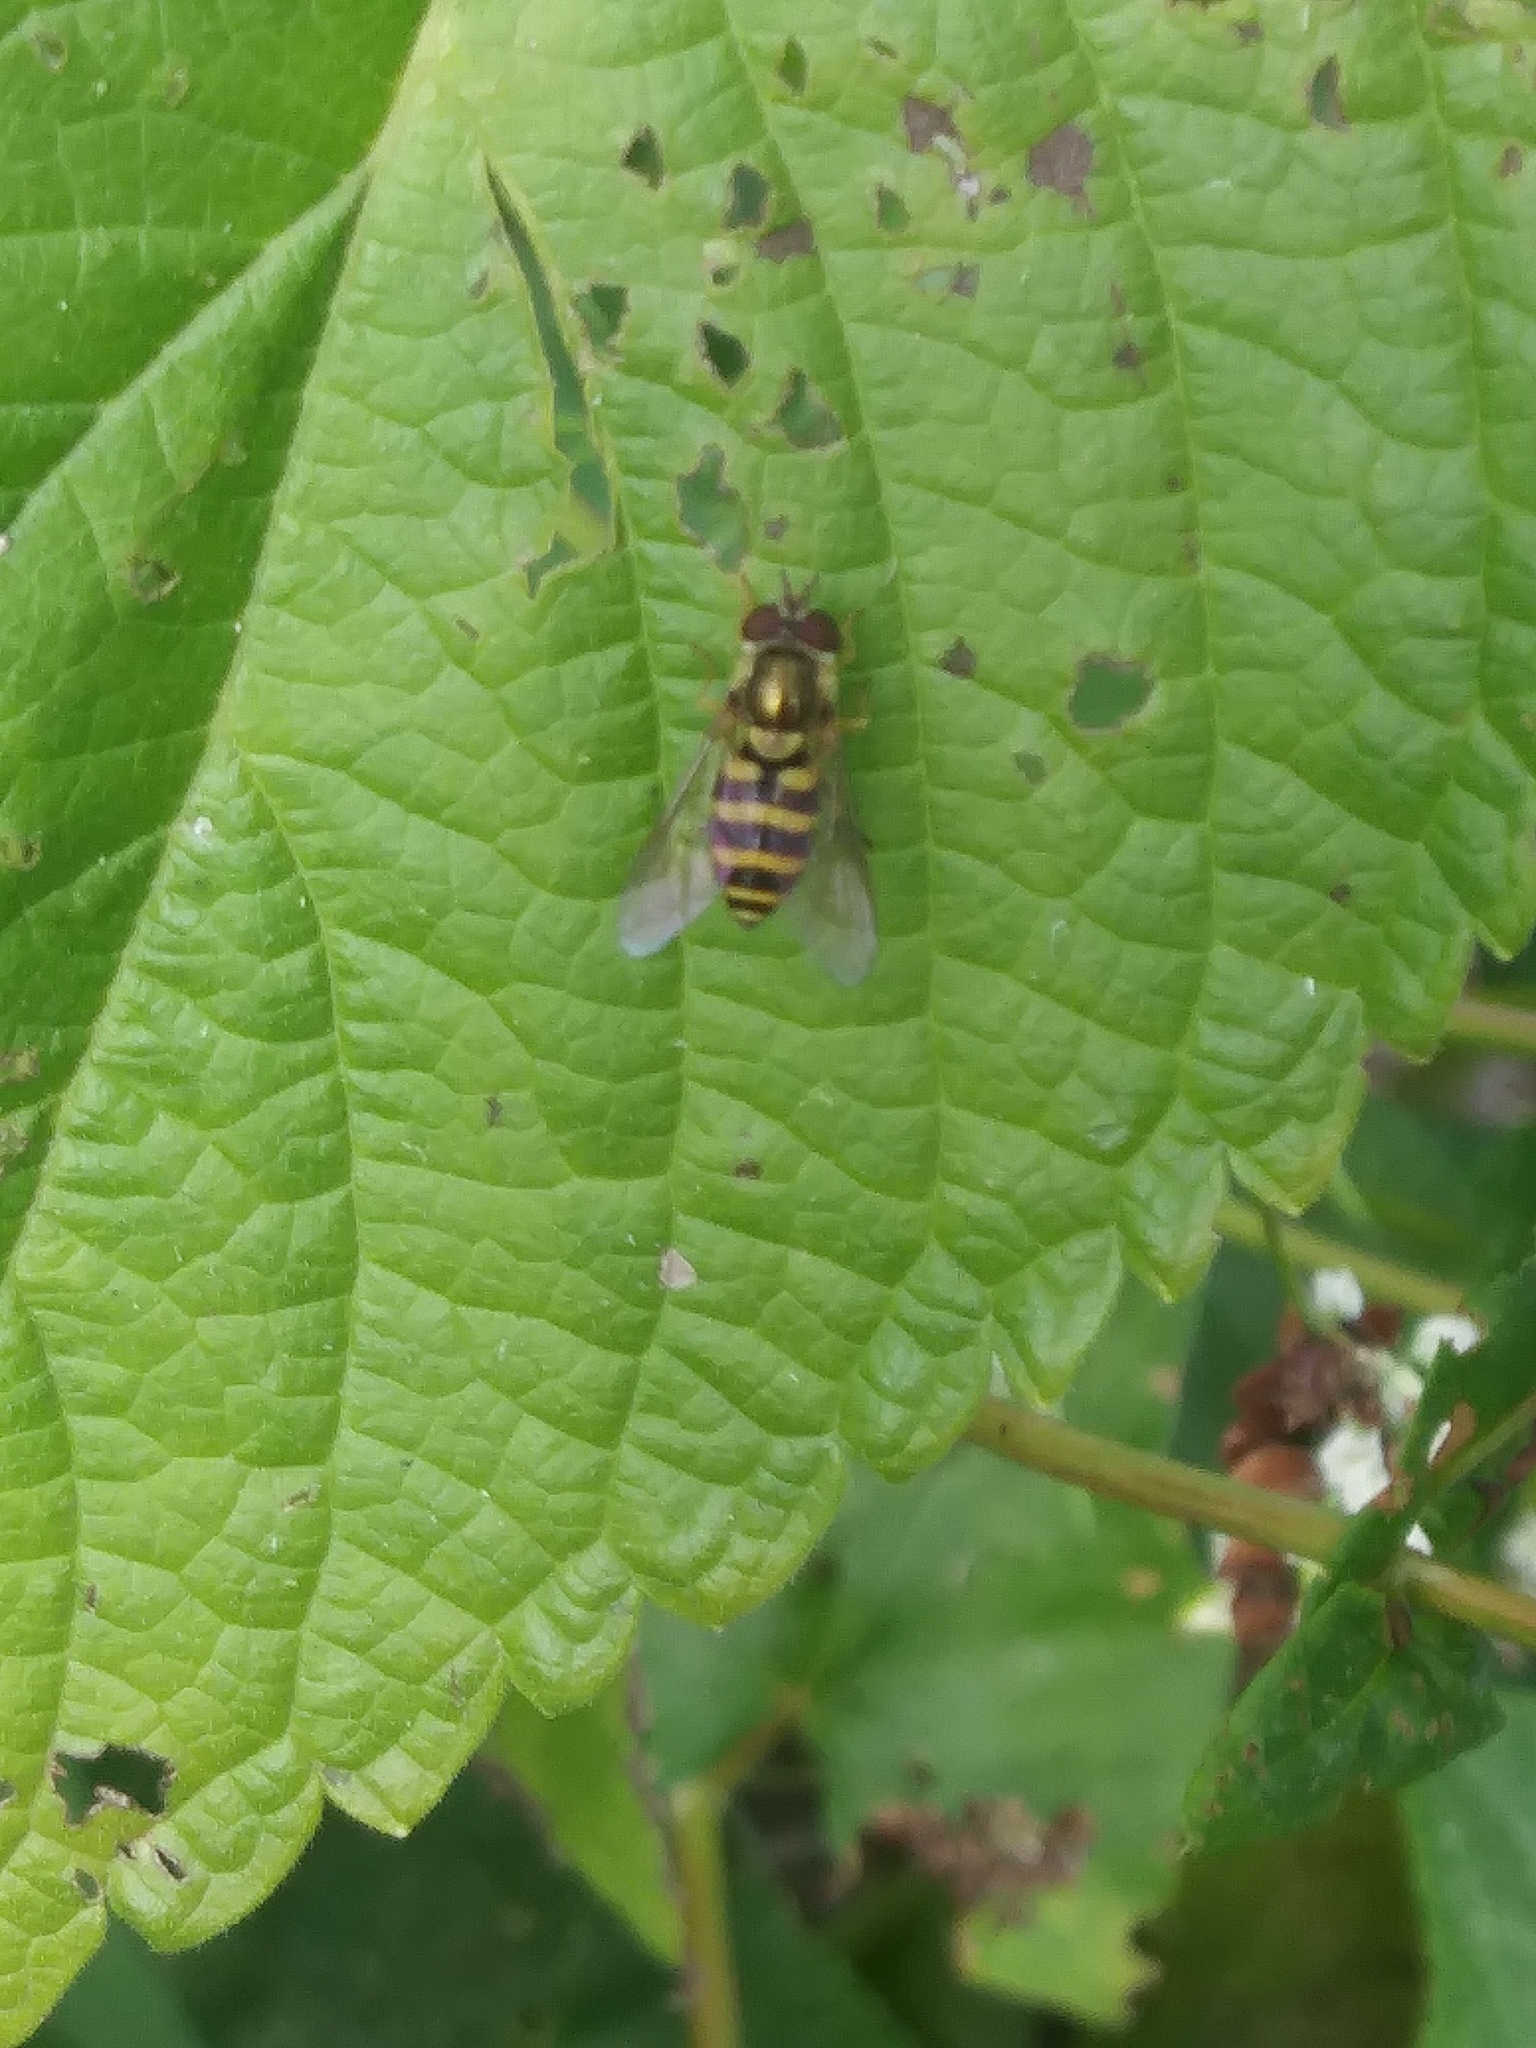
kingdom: Animalia
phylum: Arthropoda
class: Insecta
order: Diptera
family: Syrphidae
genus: Syrphus
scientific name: Syrphus
